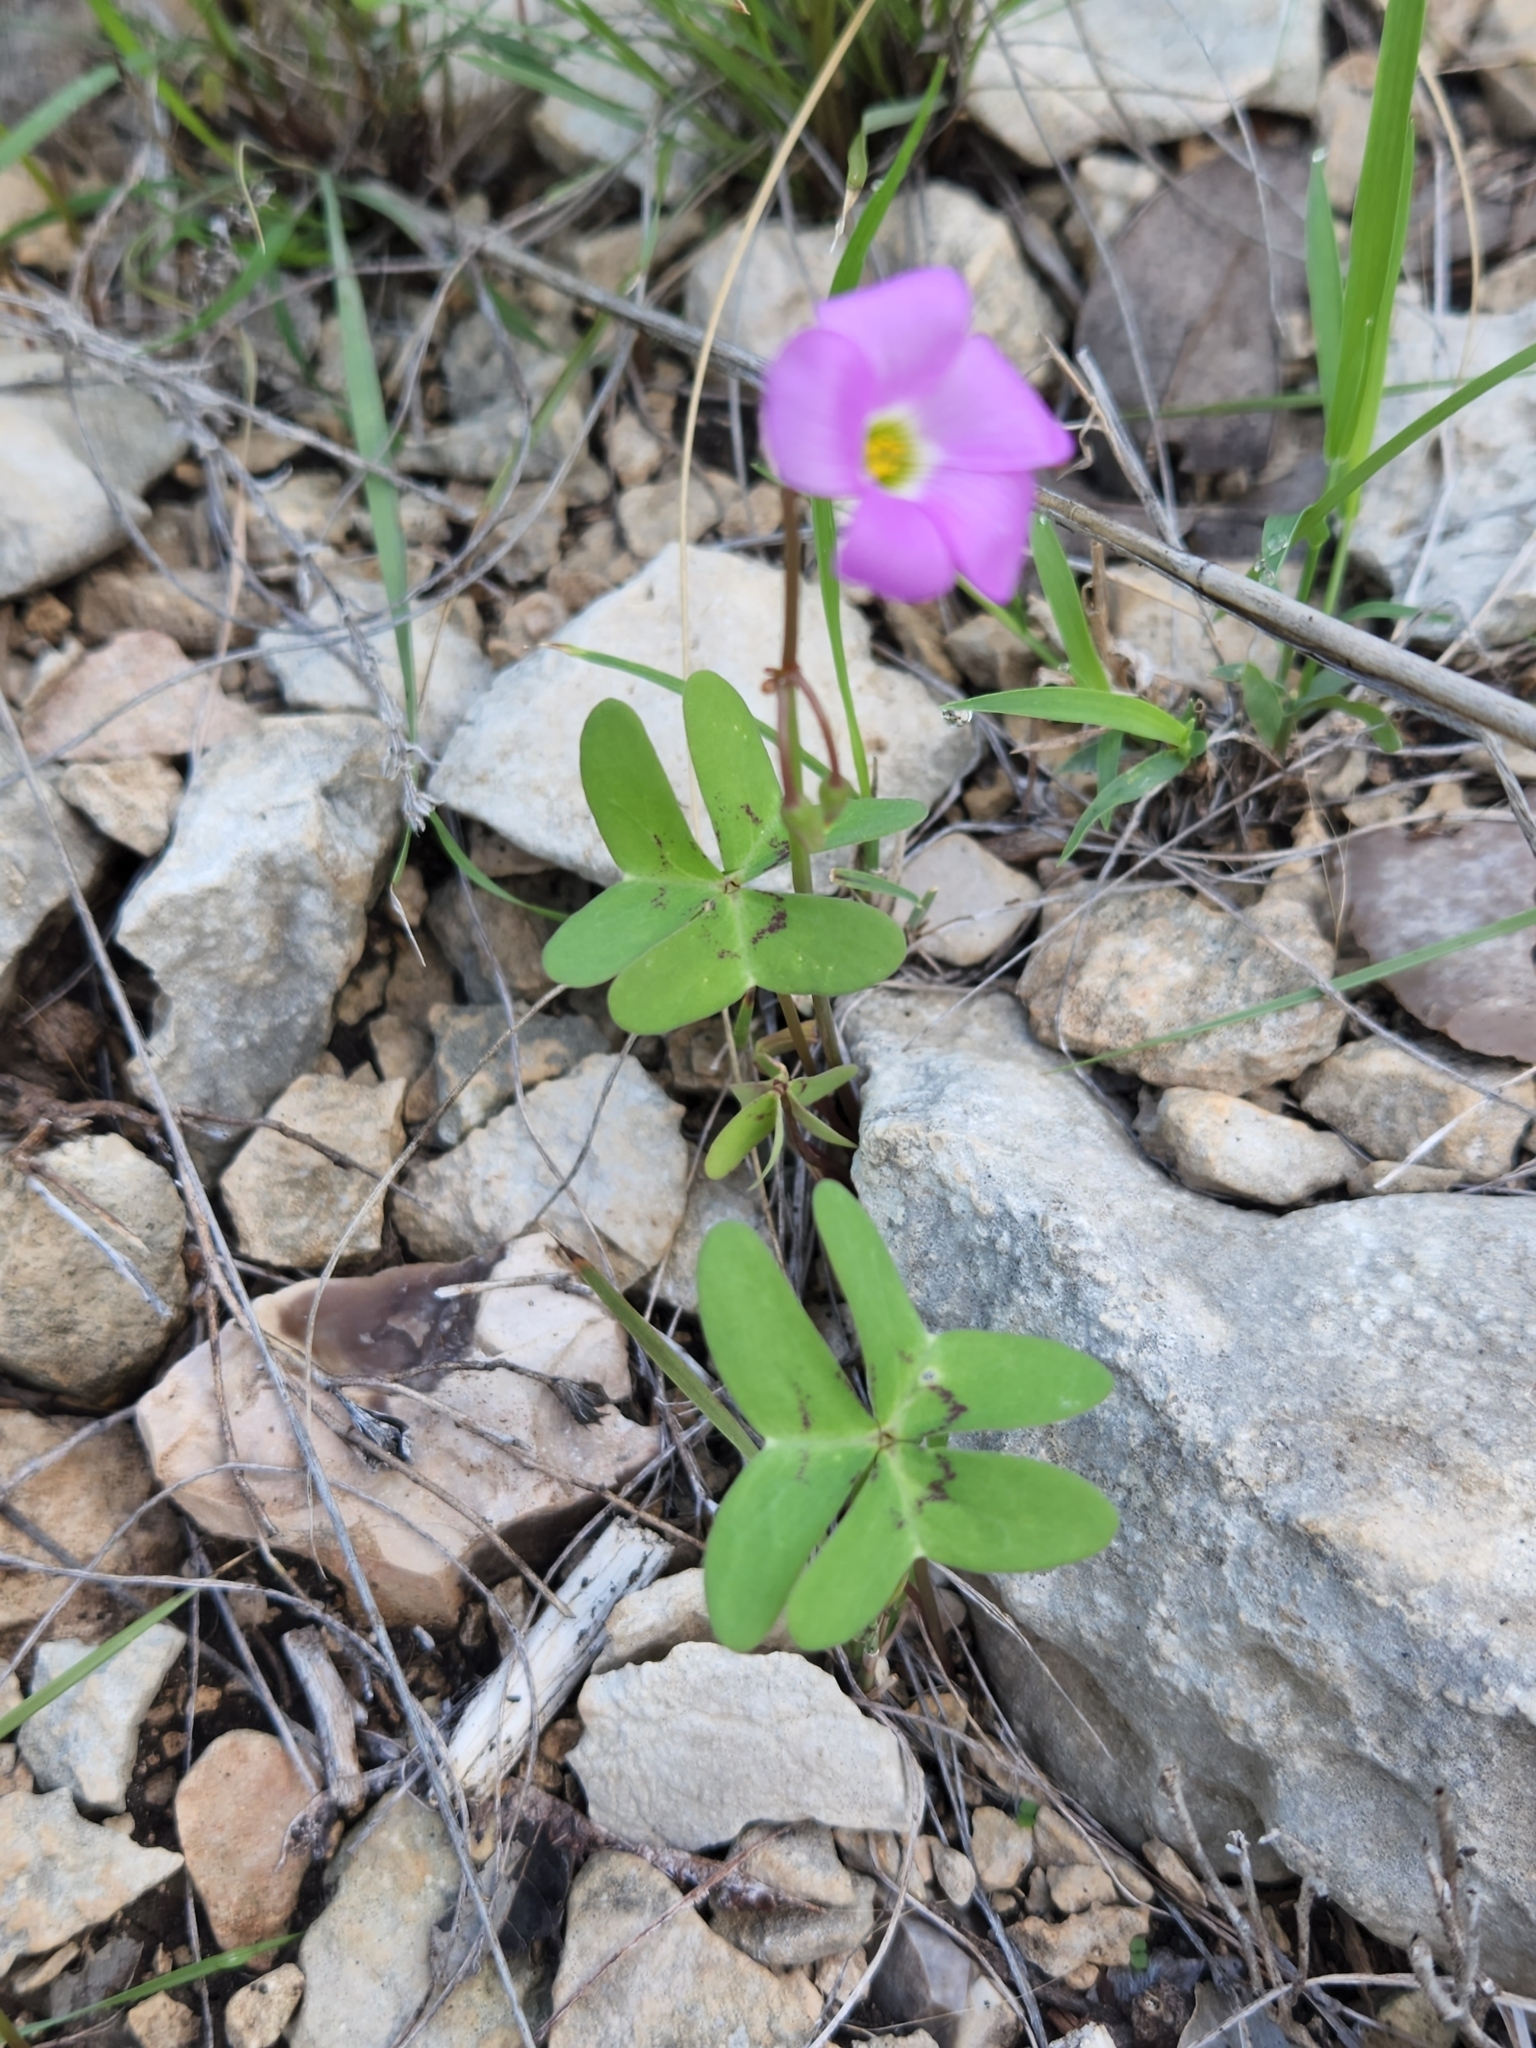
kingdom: Plantae
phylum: Tracheophyta
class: Magnoliopsida
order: Oxalidales
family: Oxalidaceae
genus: Oxalis
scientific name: Oxalis drummondii
